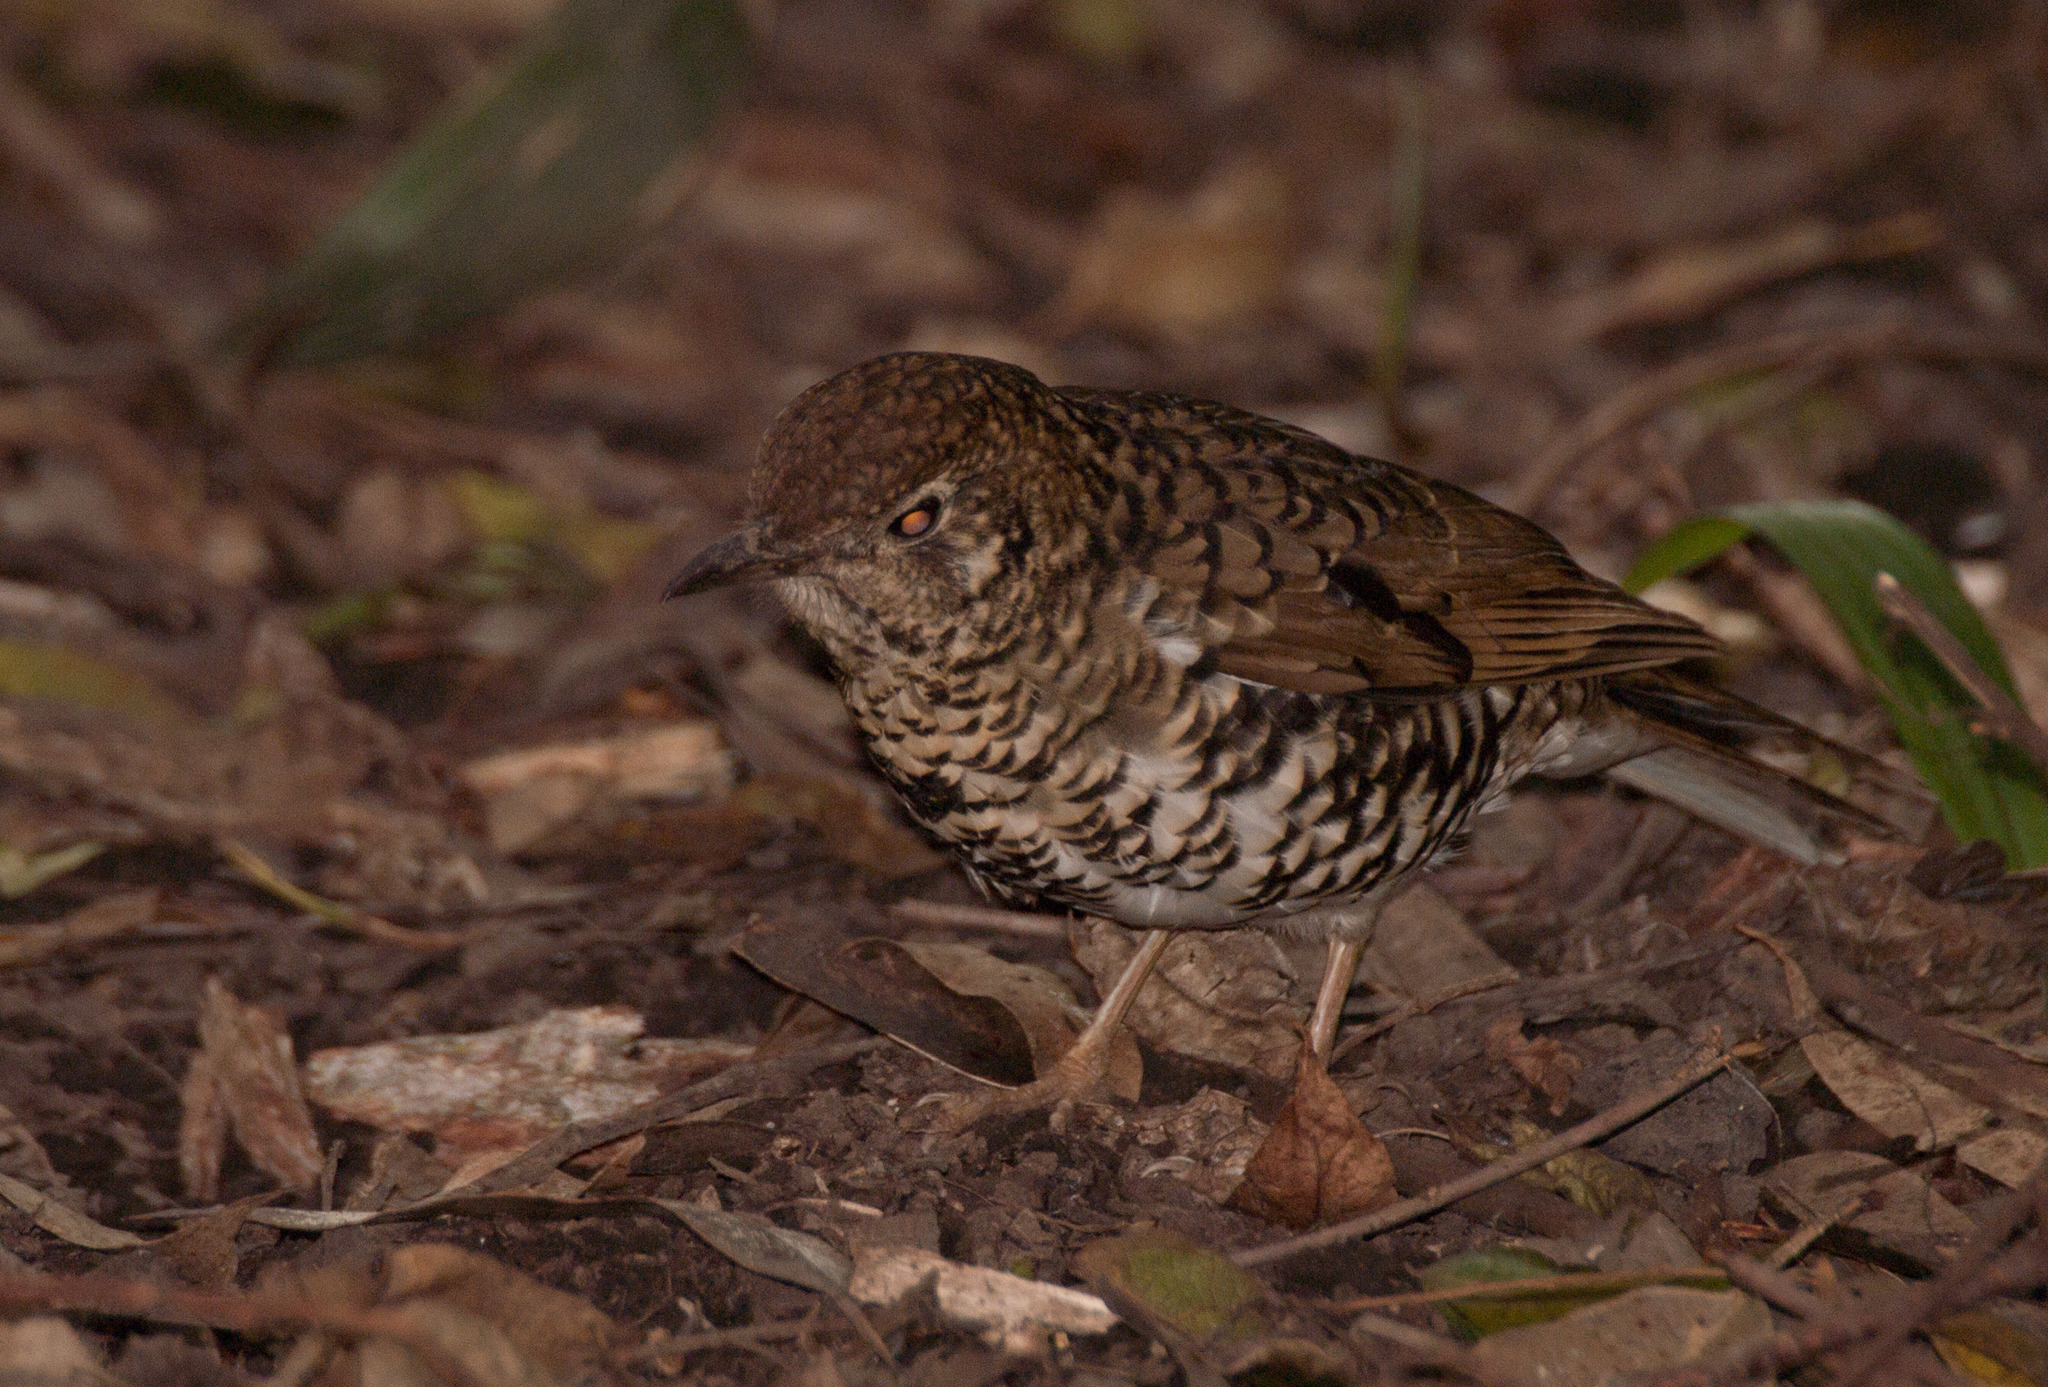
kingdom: Animalia
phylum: Chordata
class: Aves
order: Passeriformes
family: Turdidae
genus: Zoothera
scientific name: Zoothera lunulata
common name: Bassian thrush
